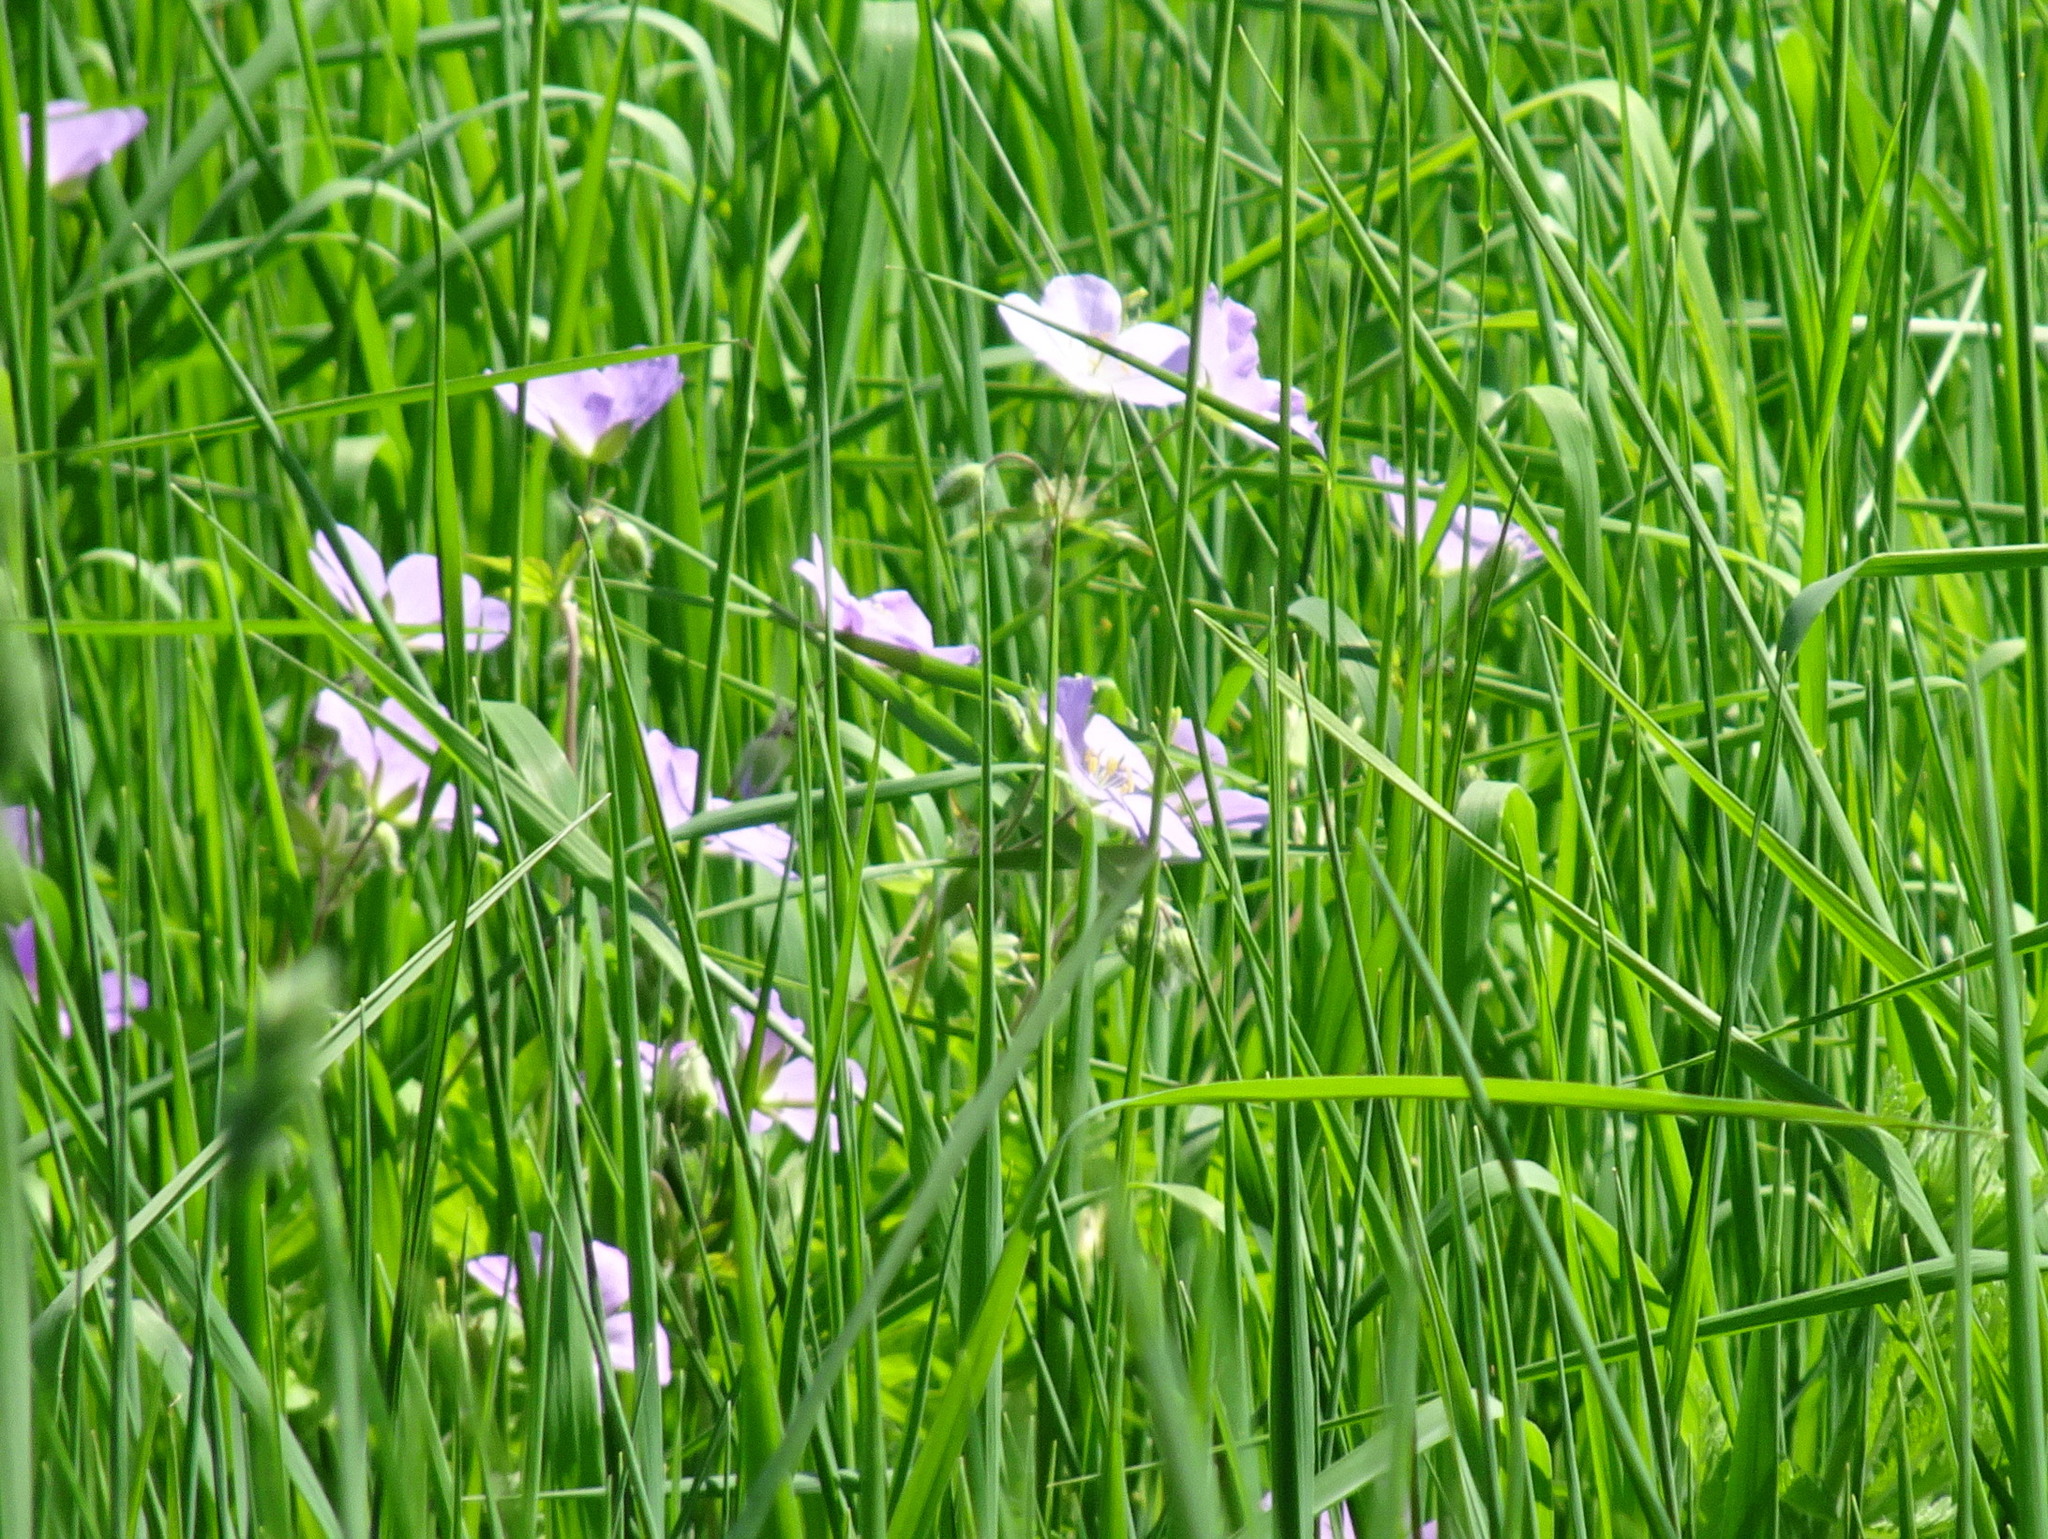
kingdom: Plantae
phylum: Tracheophyta
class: Magnoliopsida
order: Geraniales
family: Geraniaceae
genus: Geranium
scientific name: Geranium maculatum
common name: Spotted geranium
